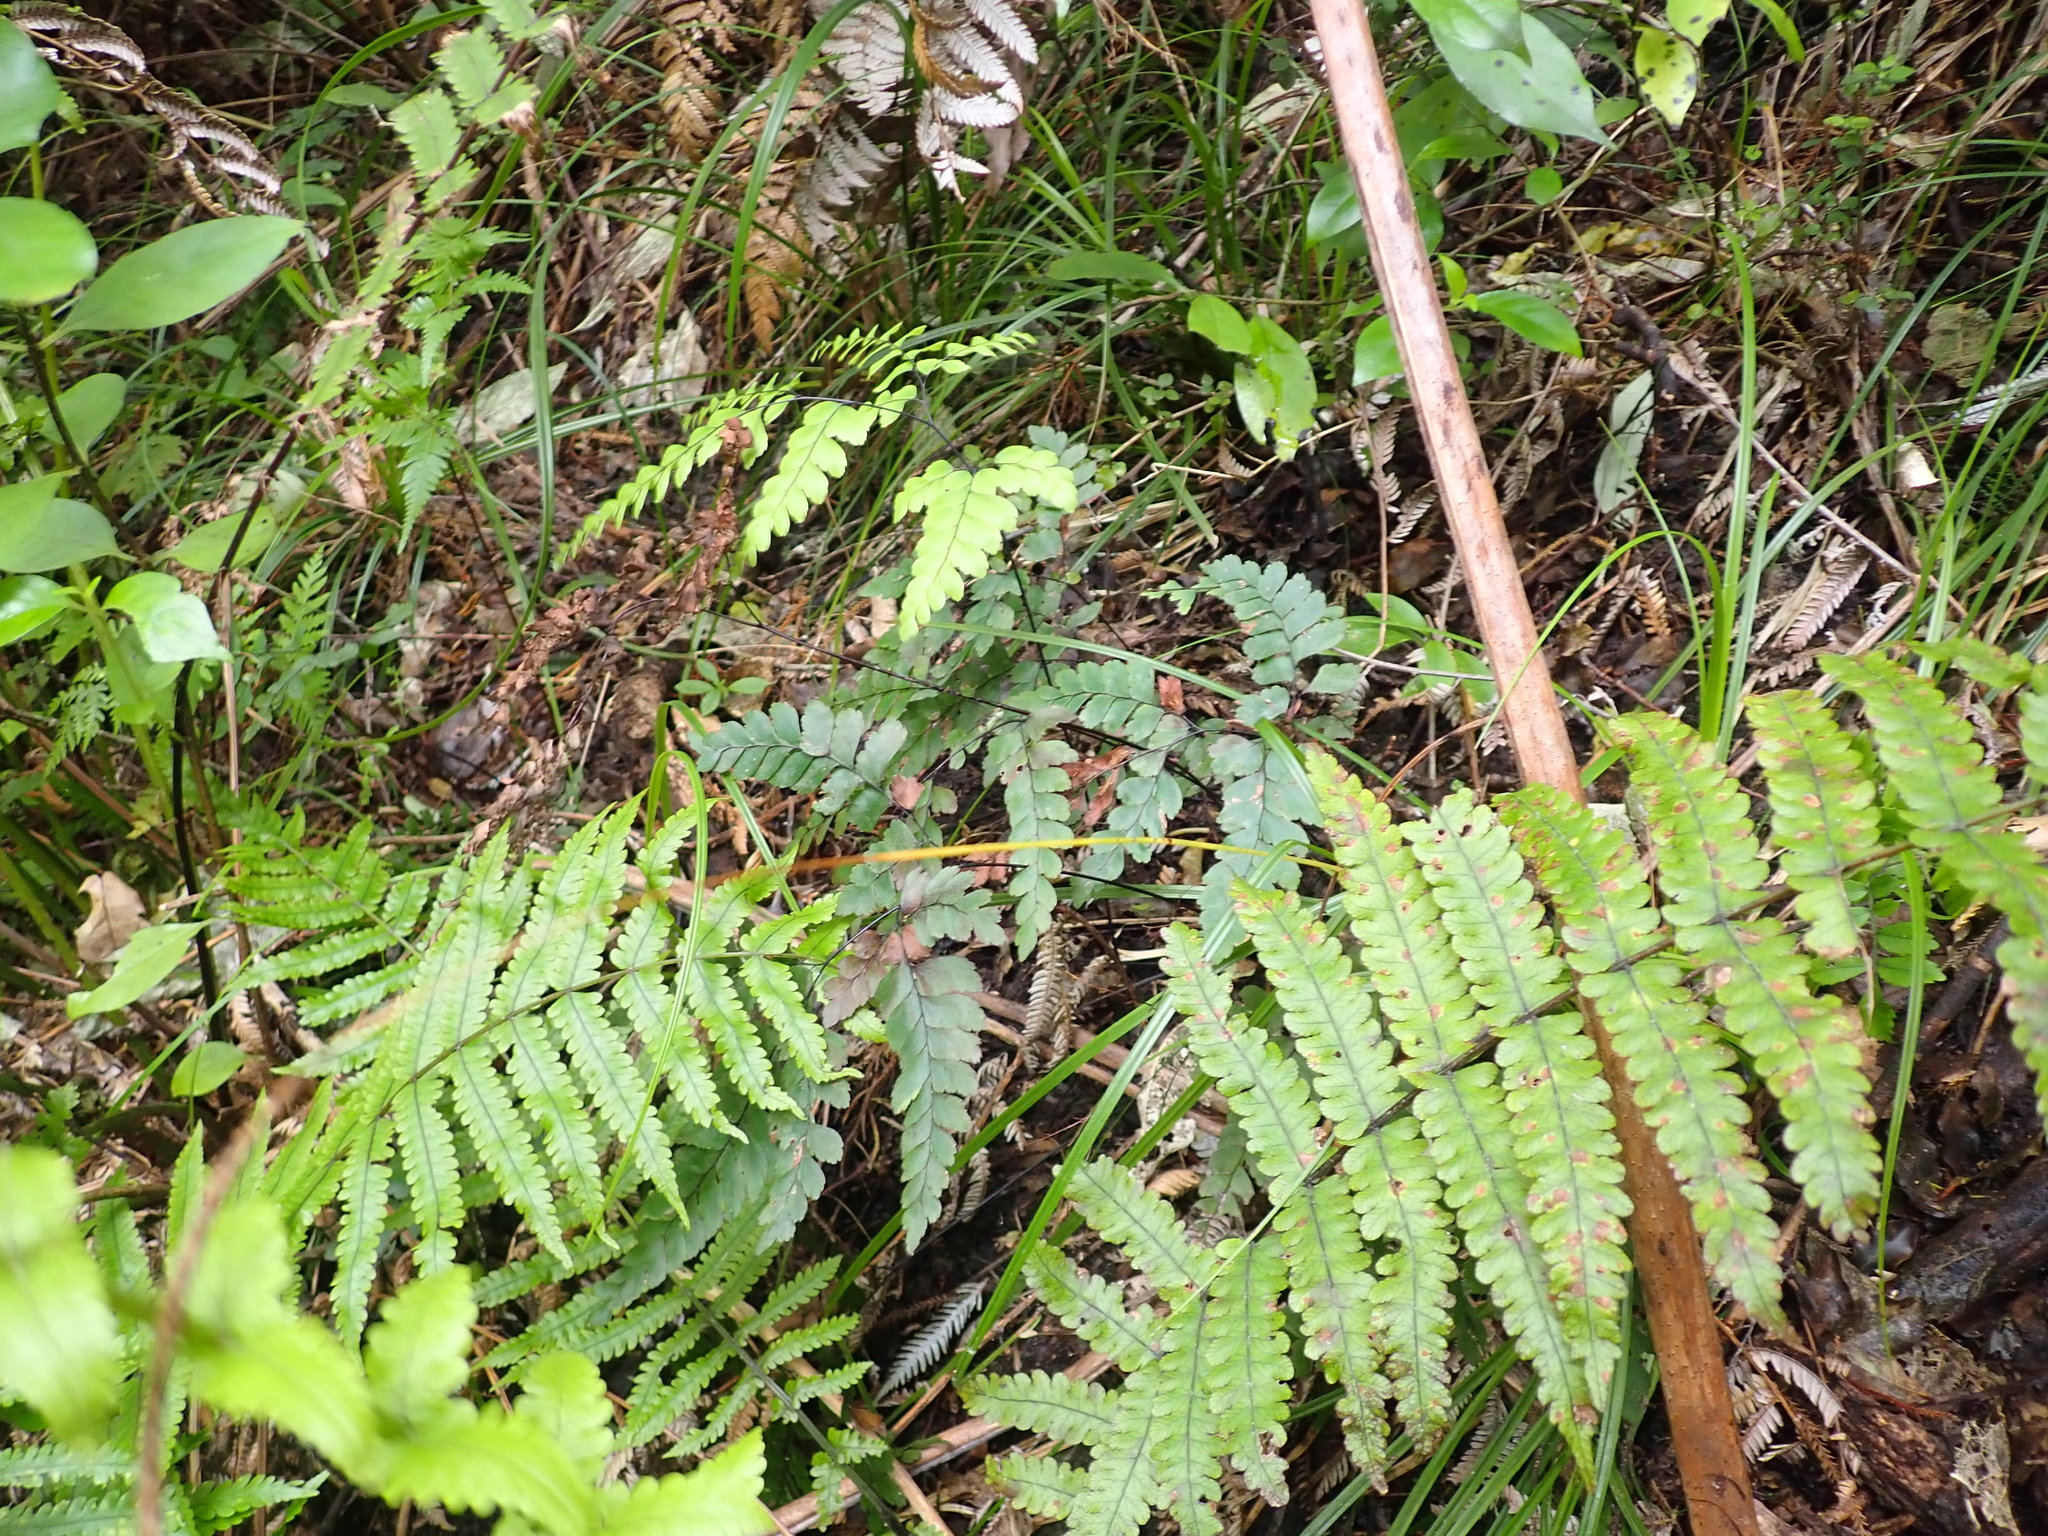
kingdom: Plantae
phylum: Tracheophyta
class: Polypodiopsida
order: Polypodiales
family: Thelypteridaceae
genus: Pakau
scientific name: Pakau pennigera
